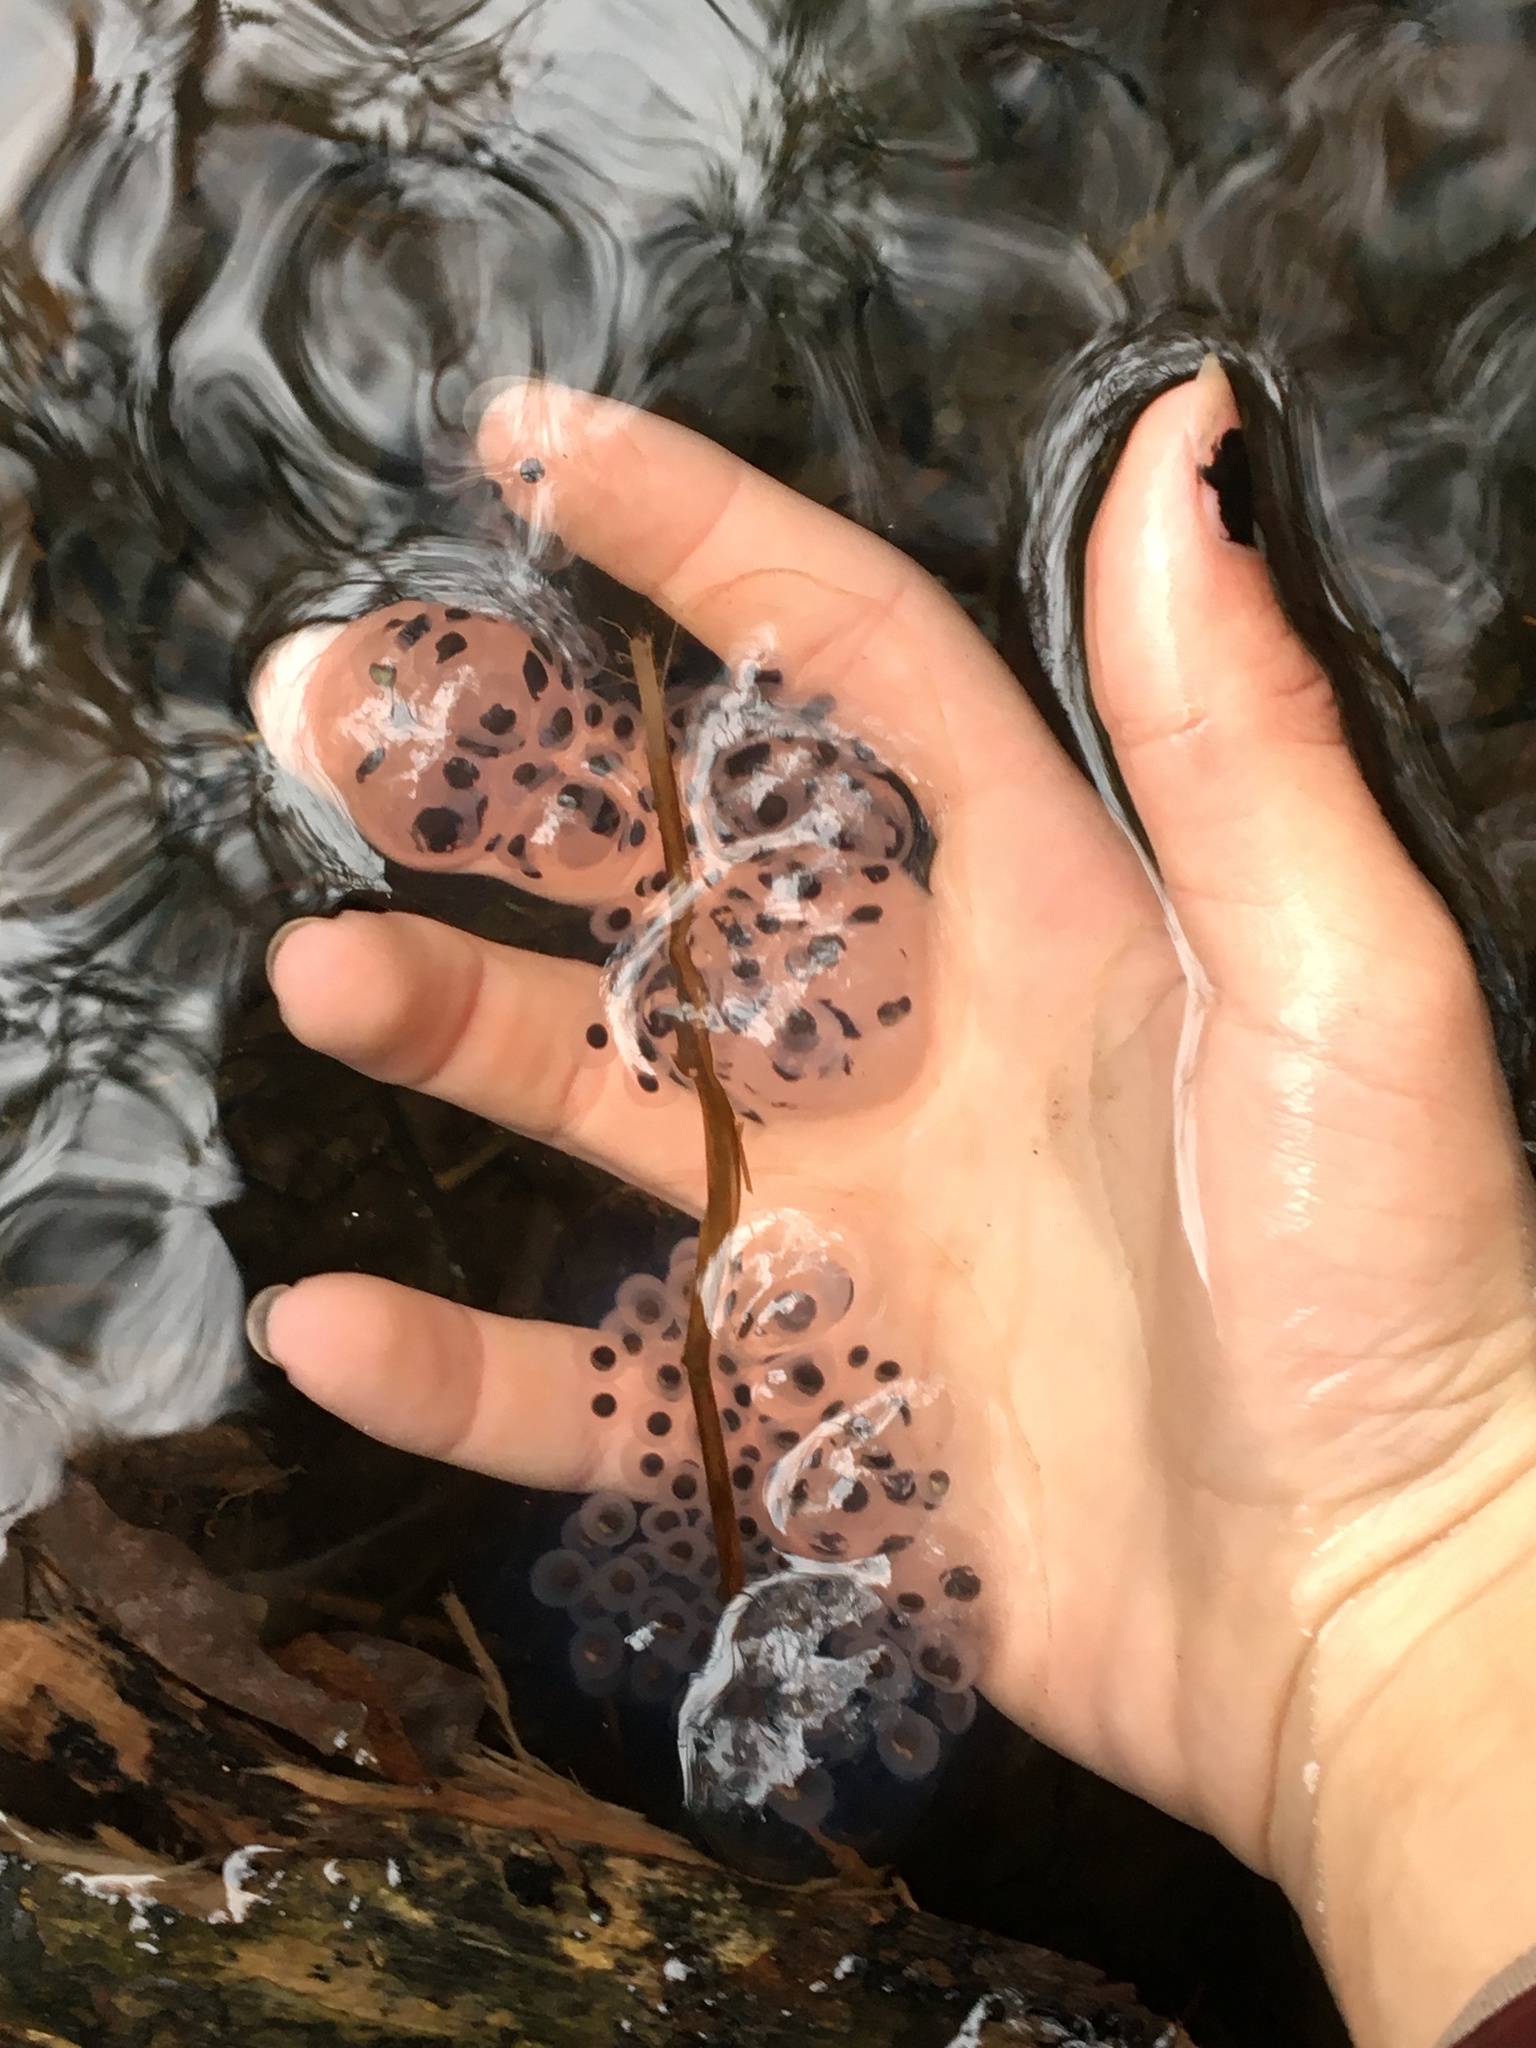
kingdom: Animalia
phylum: Chordata
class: Amphibia
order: Caudata
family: Ambystomatidae
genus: Ambystoma
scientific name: Ambystoma maculatum
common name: Spotted salamander
